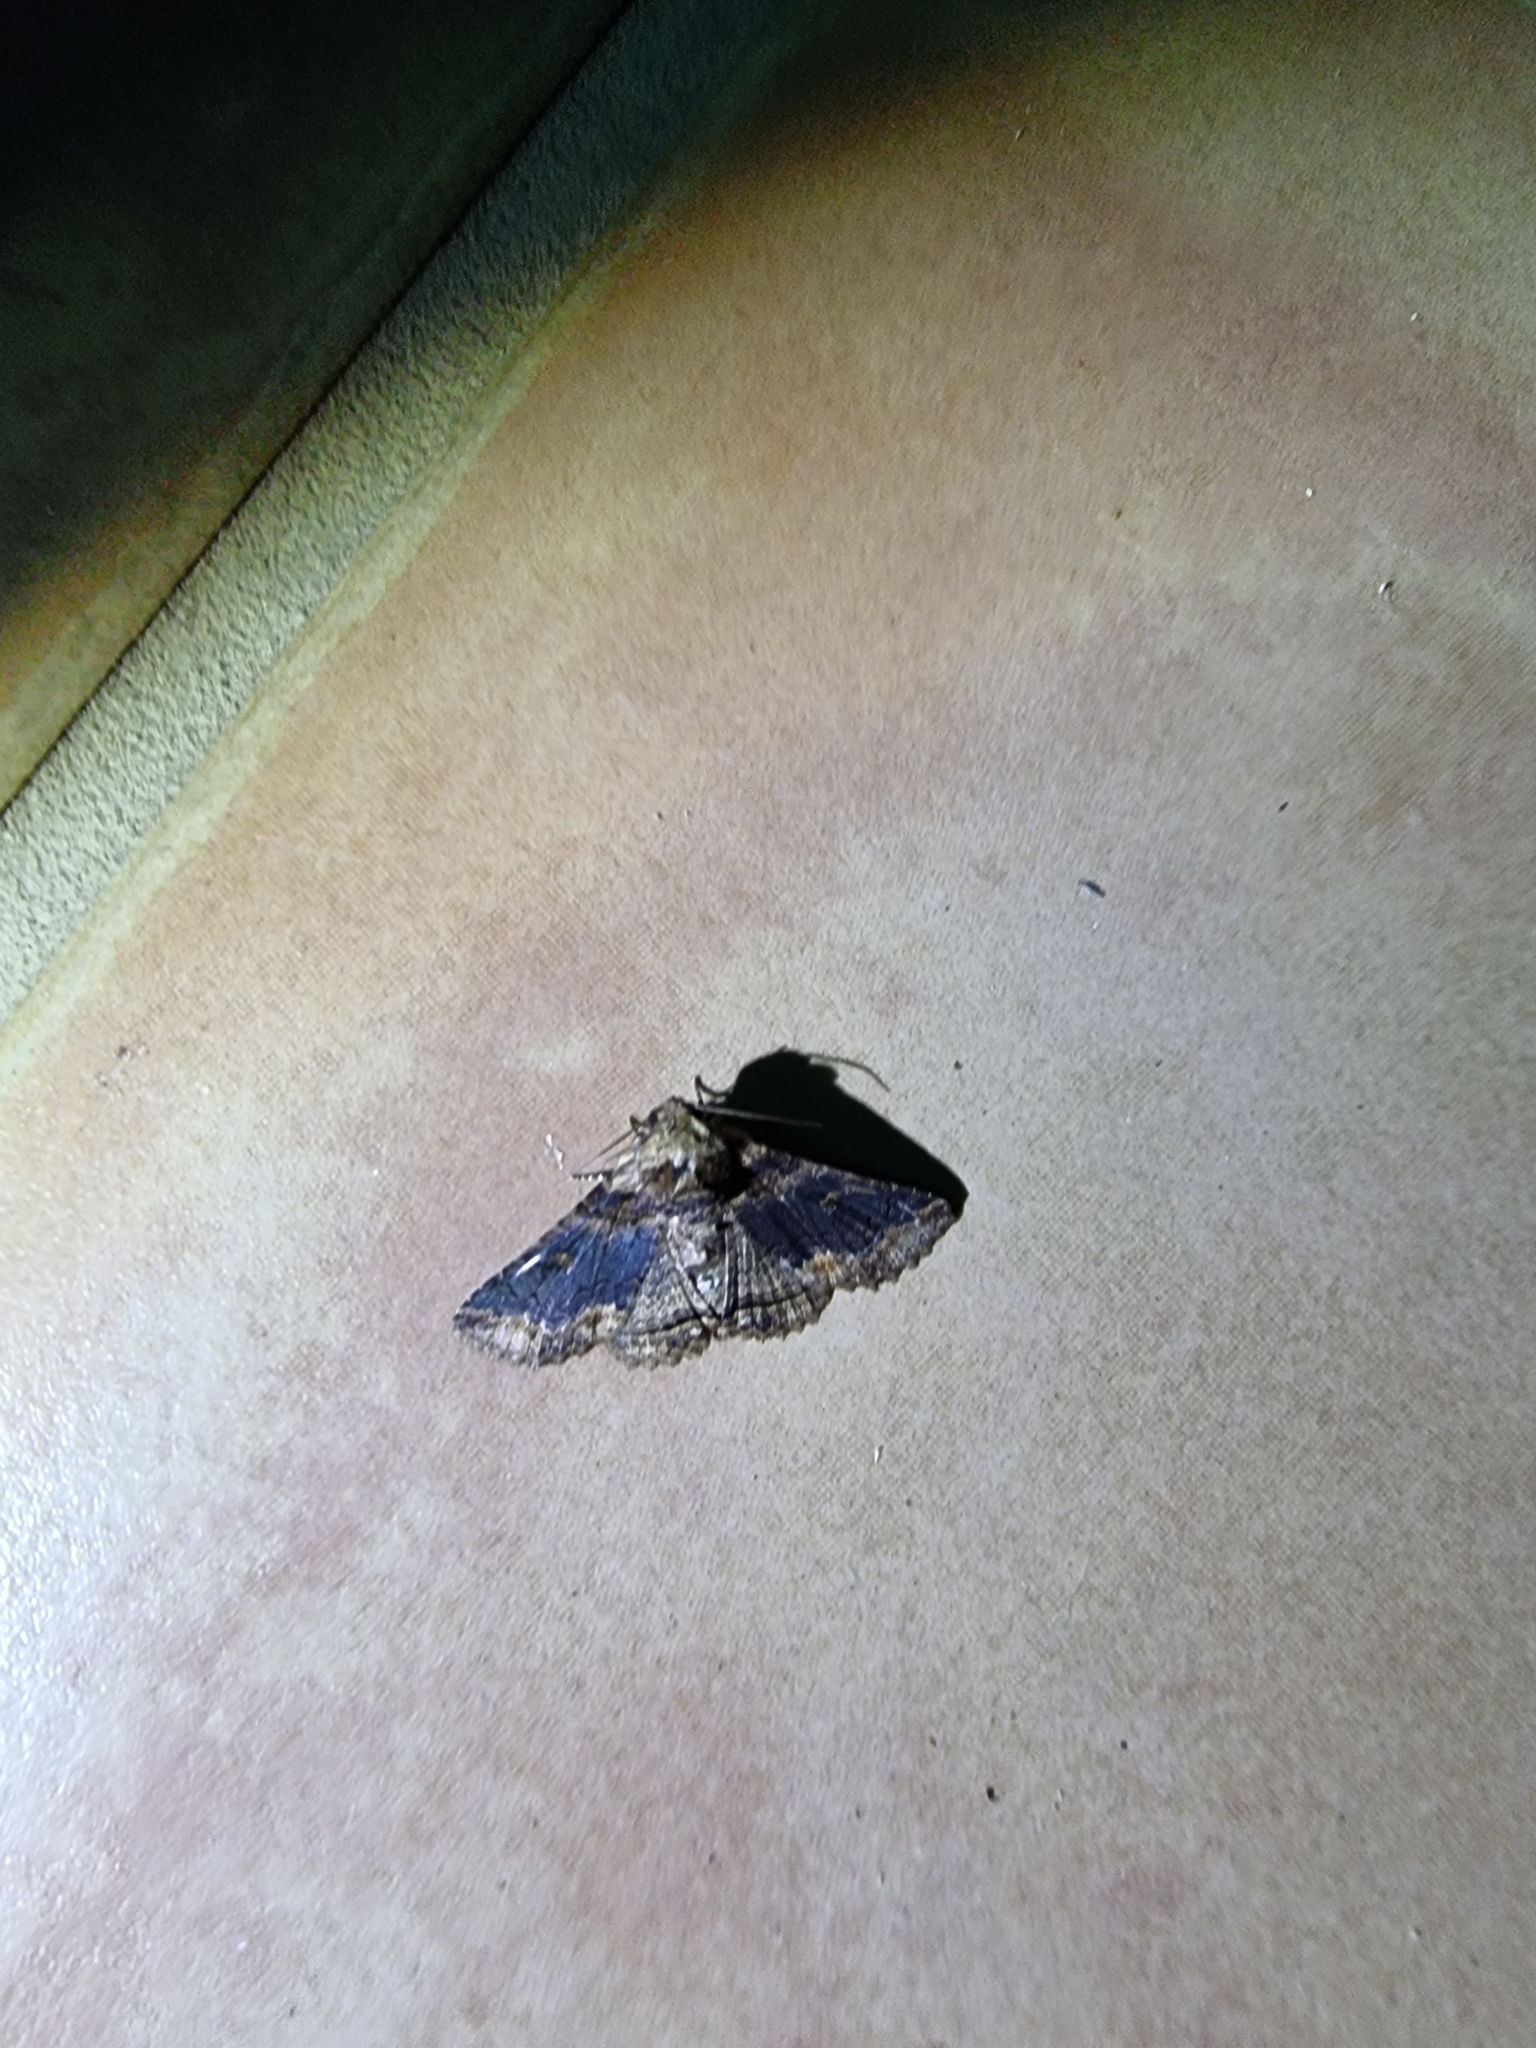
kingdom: Animalia
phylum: Arthropoda
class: Insecta
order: Lepidoptera
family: Erebidae
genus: Pericyma
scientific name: Pericyma cruegeri
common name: Poinciana looper
